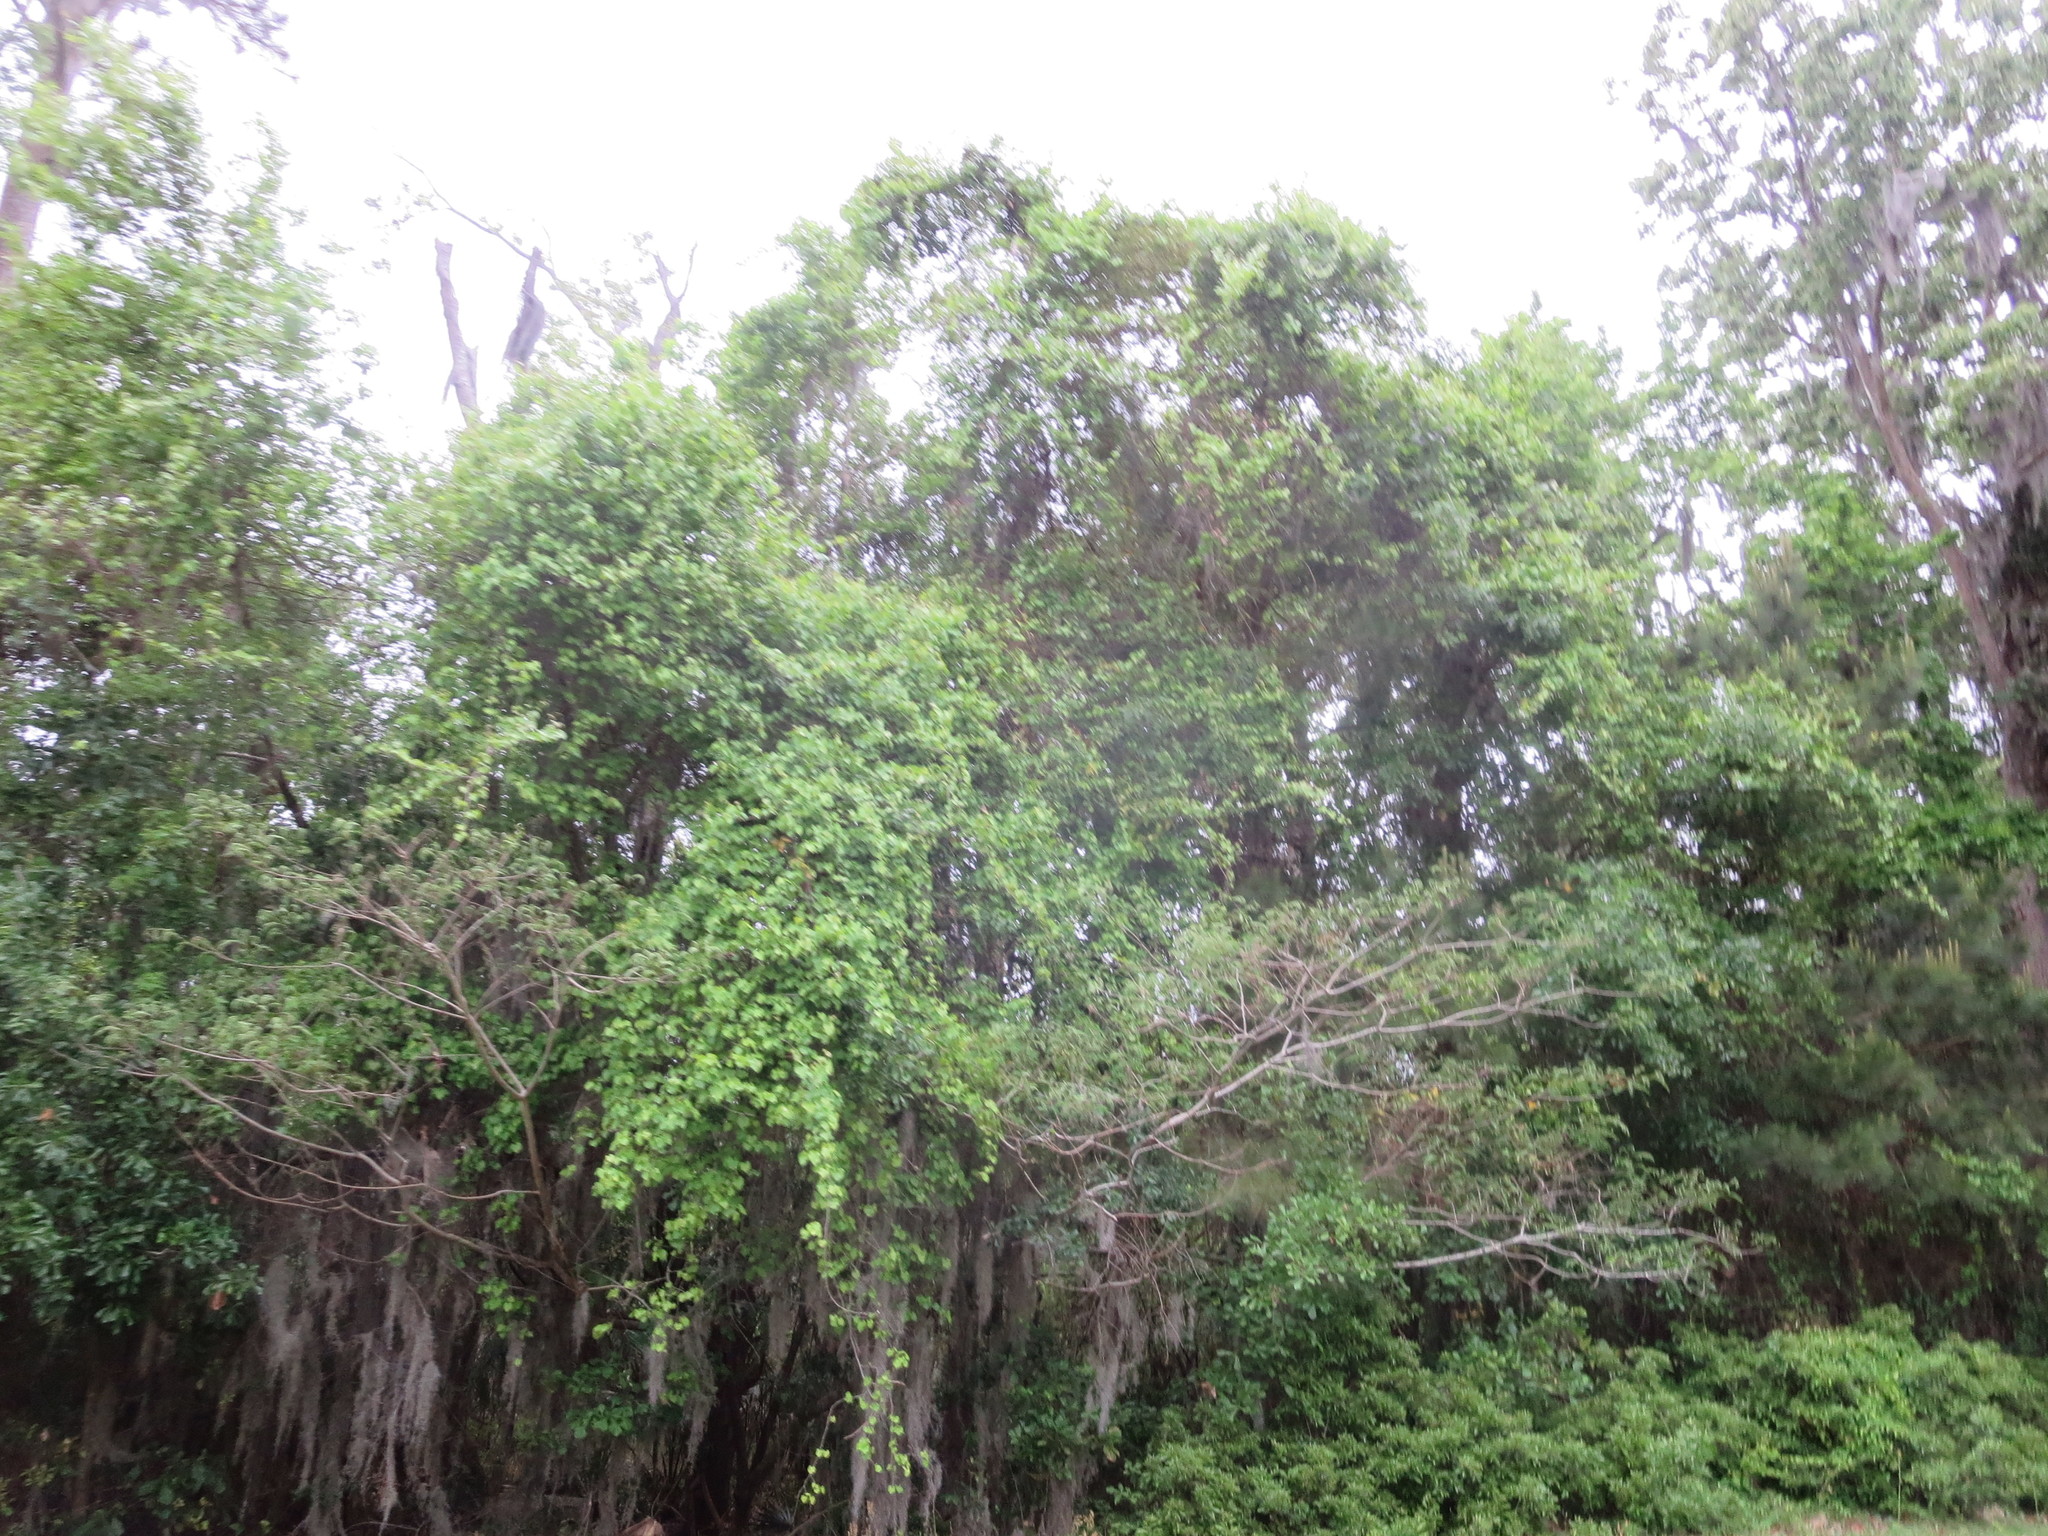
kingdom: Plantae
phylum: Tracheophyta
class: Magnoliopsida
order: Vitales
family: Vitaceae
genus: Vitis
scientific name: Vitis rotundifolia
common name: Muscadine grape
